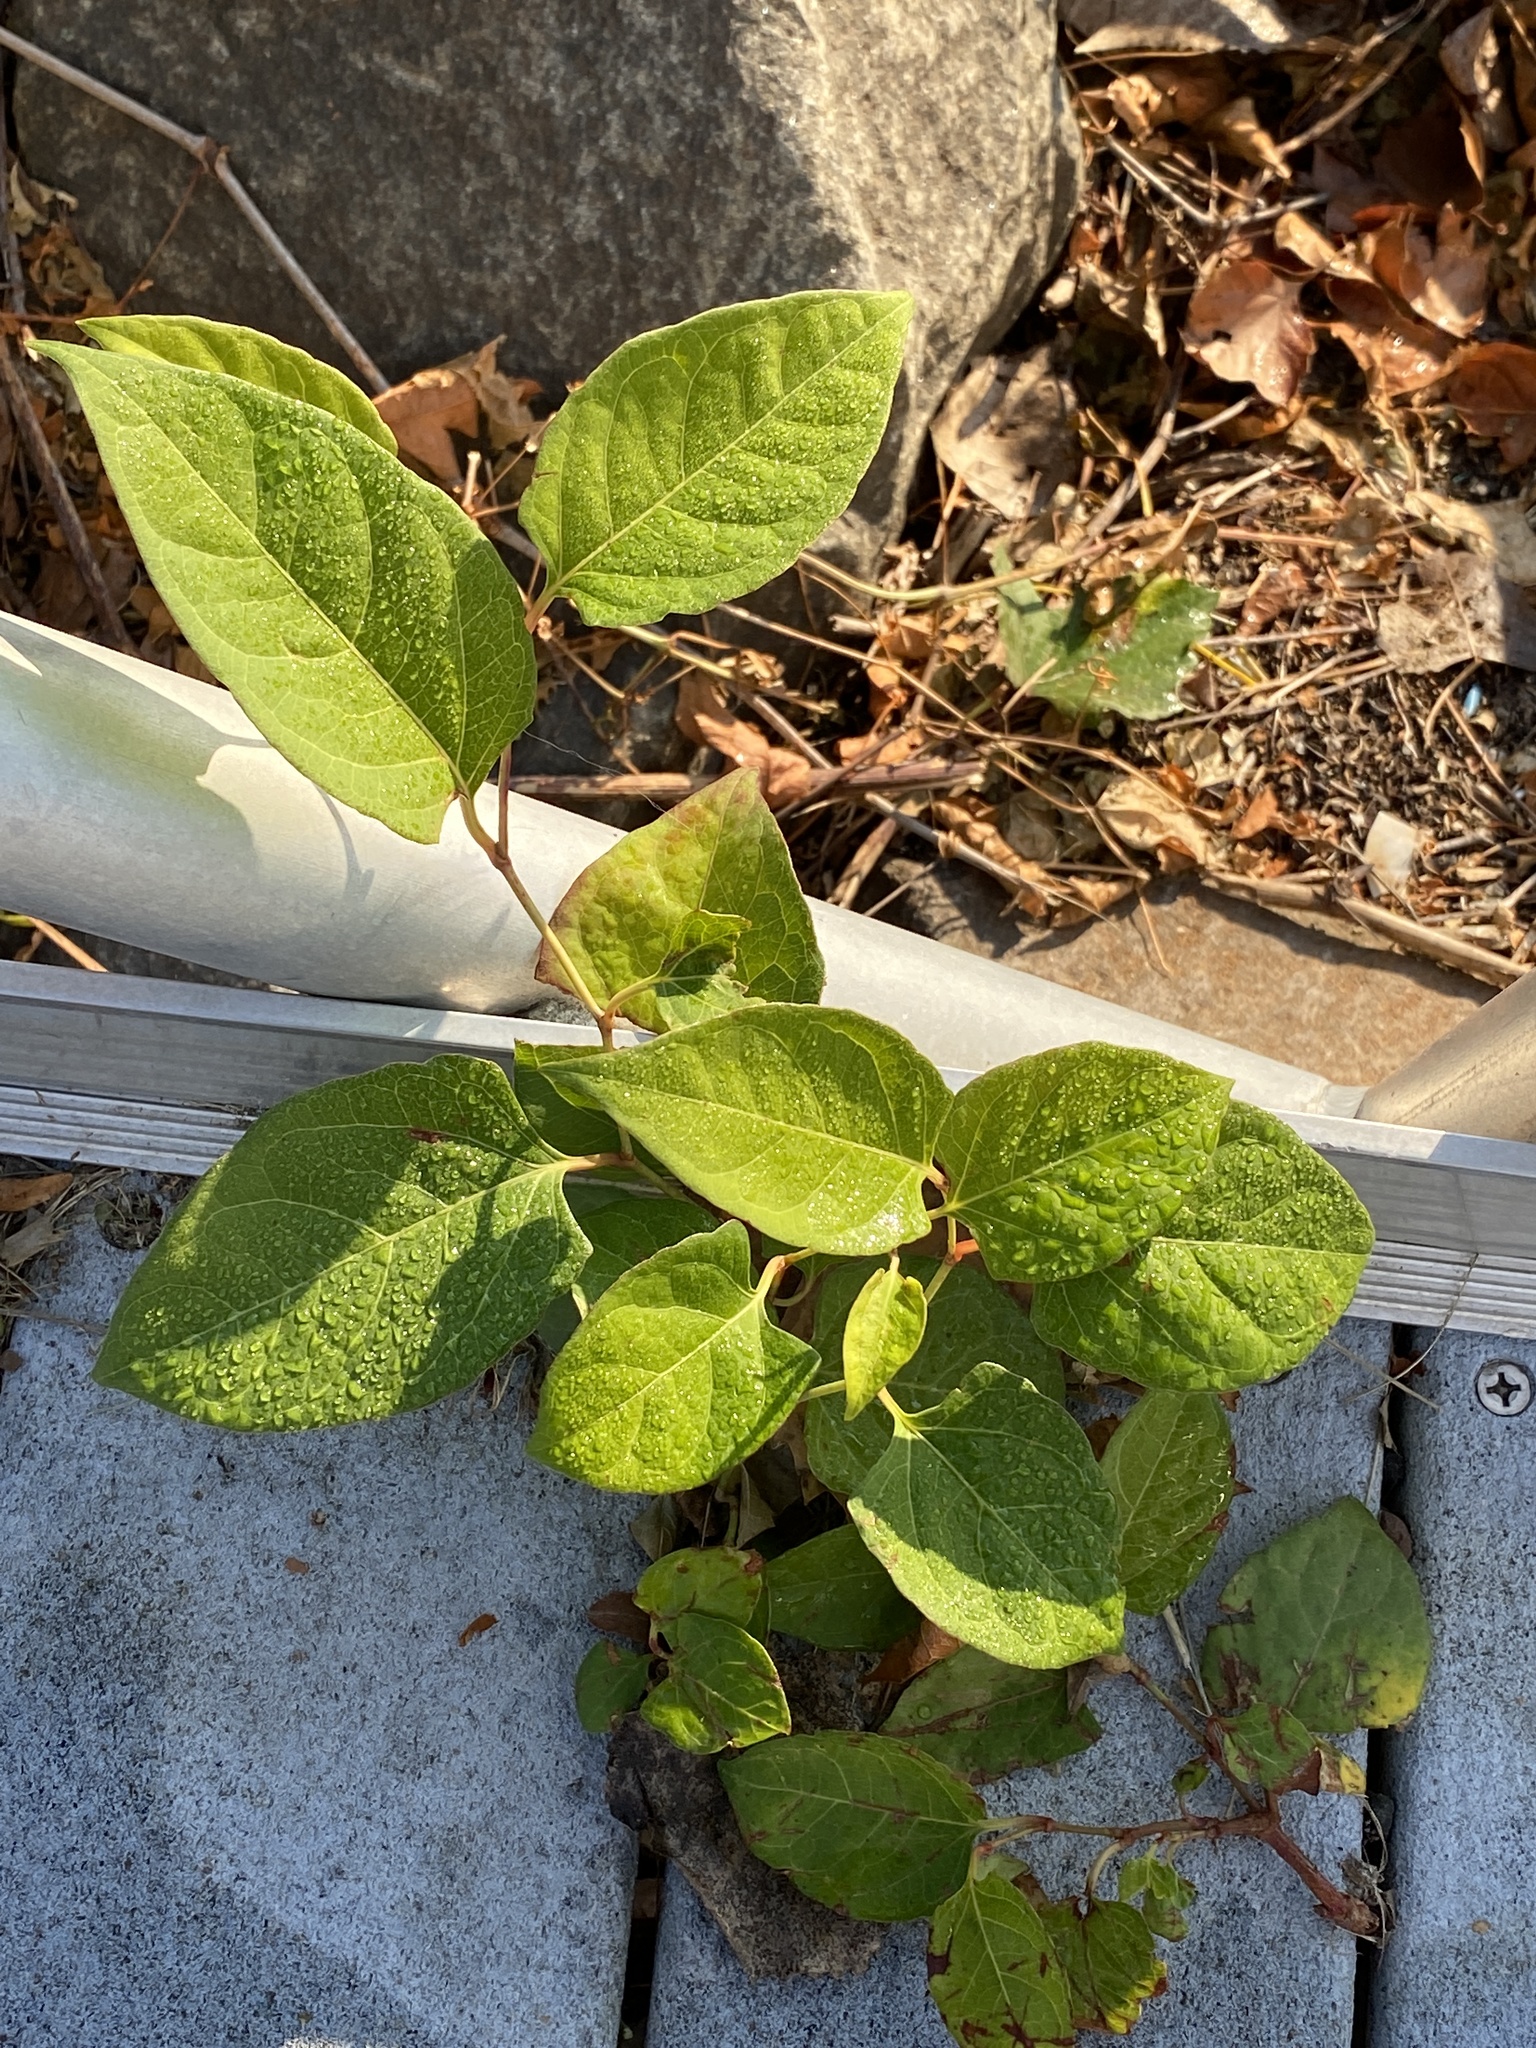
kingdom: Plantae
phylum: Tracheophyta
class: Magnoliopsida
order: Caryophyllales
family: Polygonaceae
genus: Reynoutria
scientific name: Reynoutria japonica
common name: Japanese knotweed
